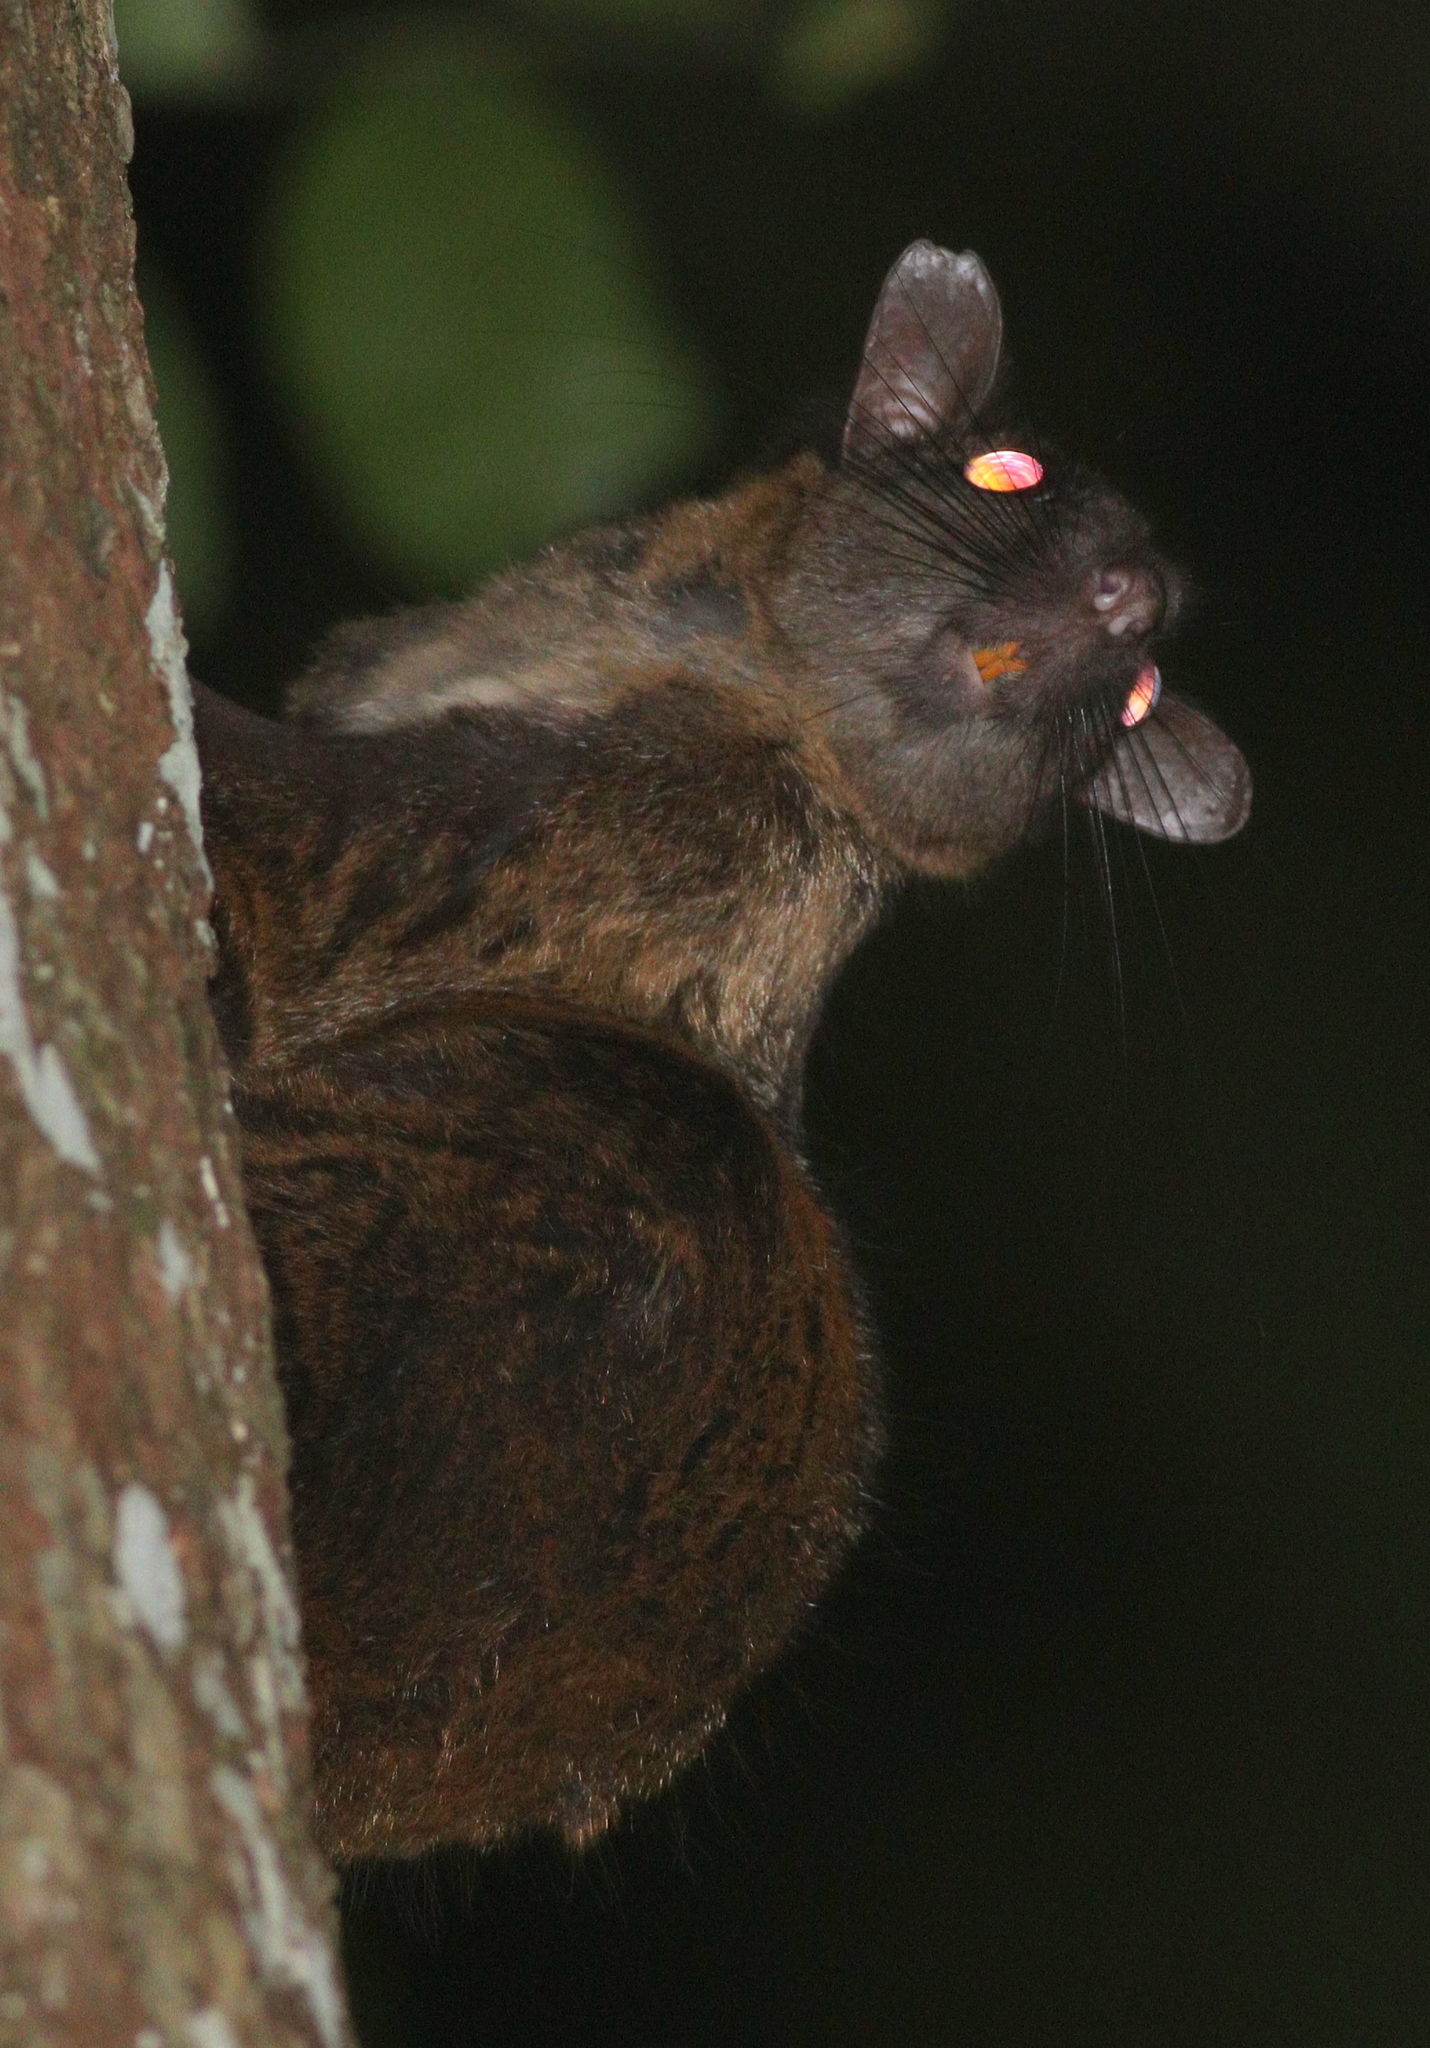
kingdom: Animalia
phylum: Chordata
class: Mammalia
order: Rodentia
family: Anomaluridae
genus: Anomalurus
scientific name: Anomalurus derbianus
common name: Lord derby's flying squirrel
